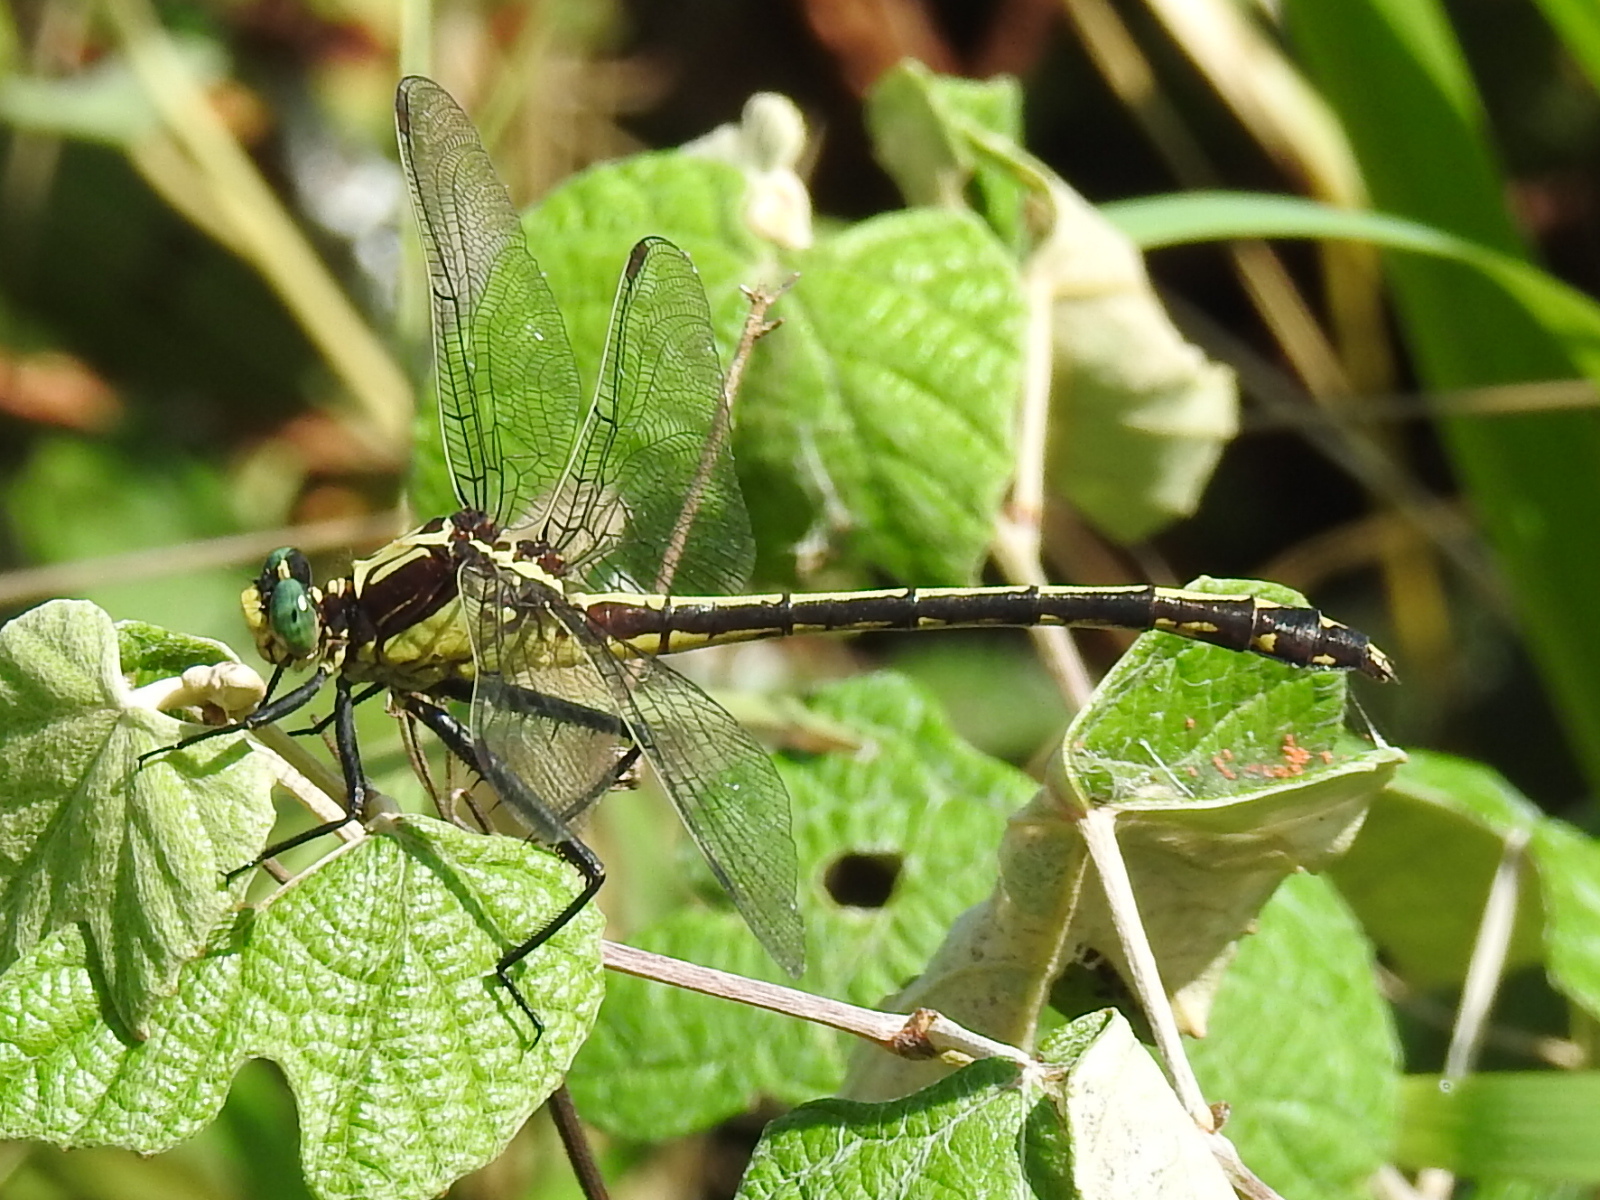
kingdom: Animalia
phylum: Arthropoda
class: Insecta
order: Odonata
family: Gomphidae
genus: Dromogomphus
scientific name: Dromogomphus spinosus
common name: Black-shouldered spinyleg
